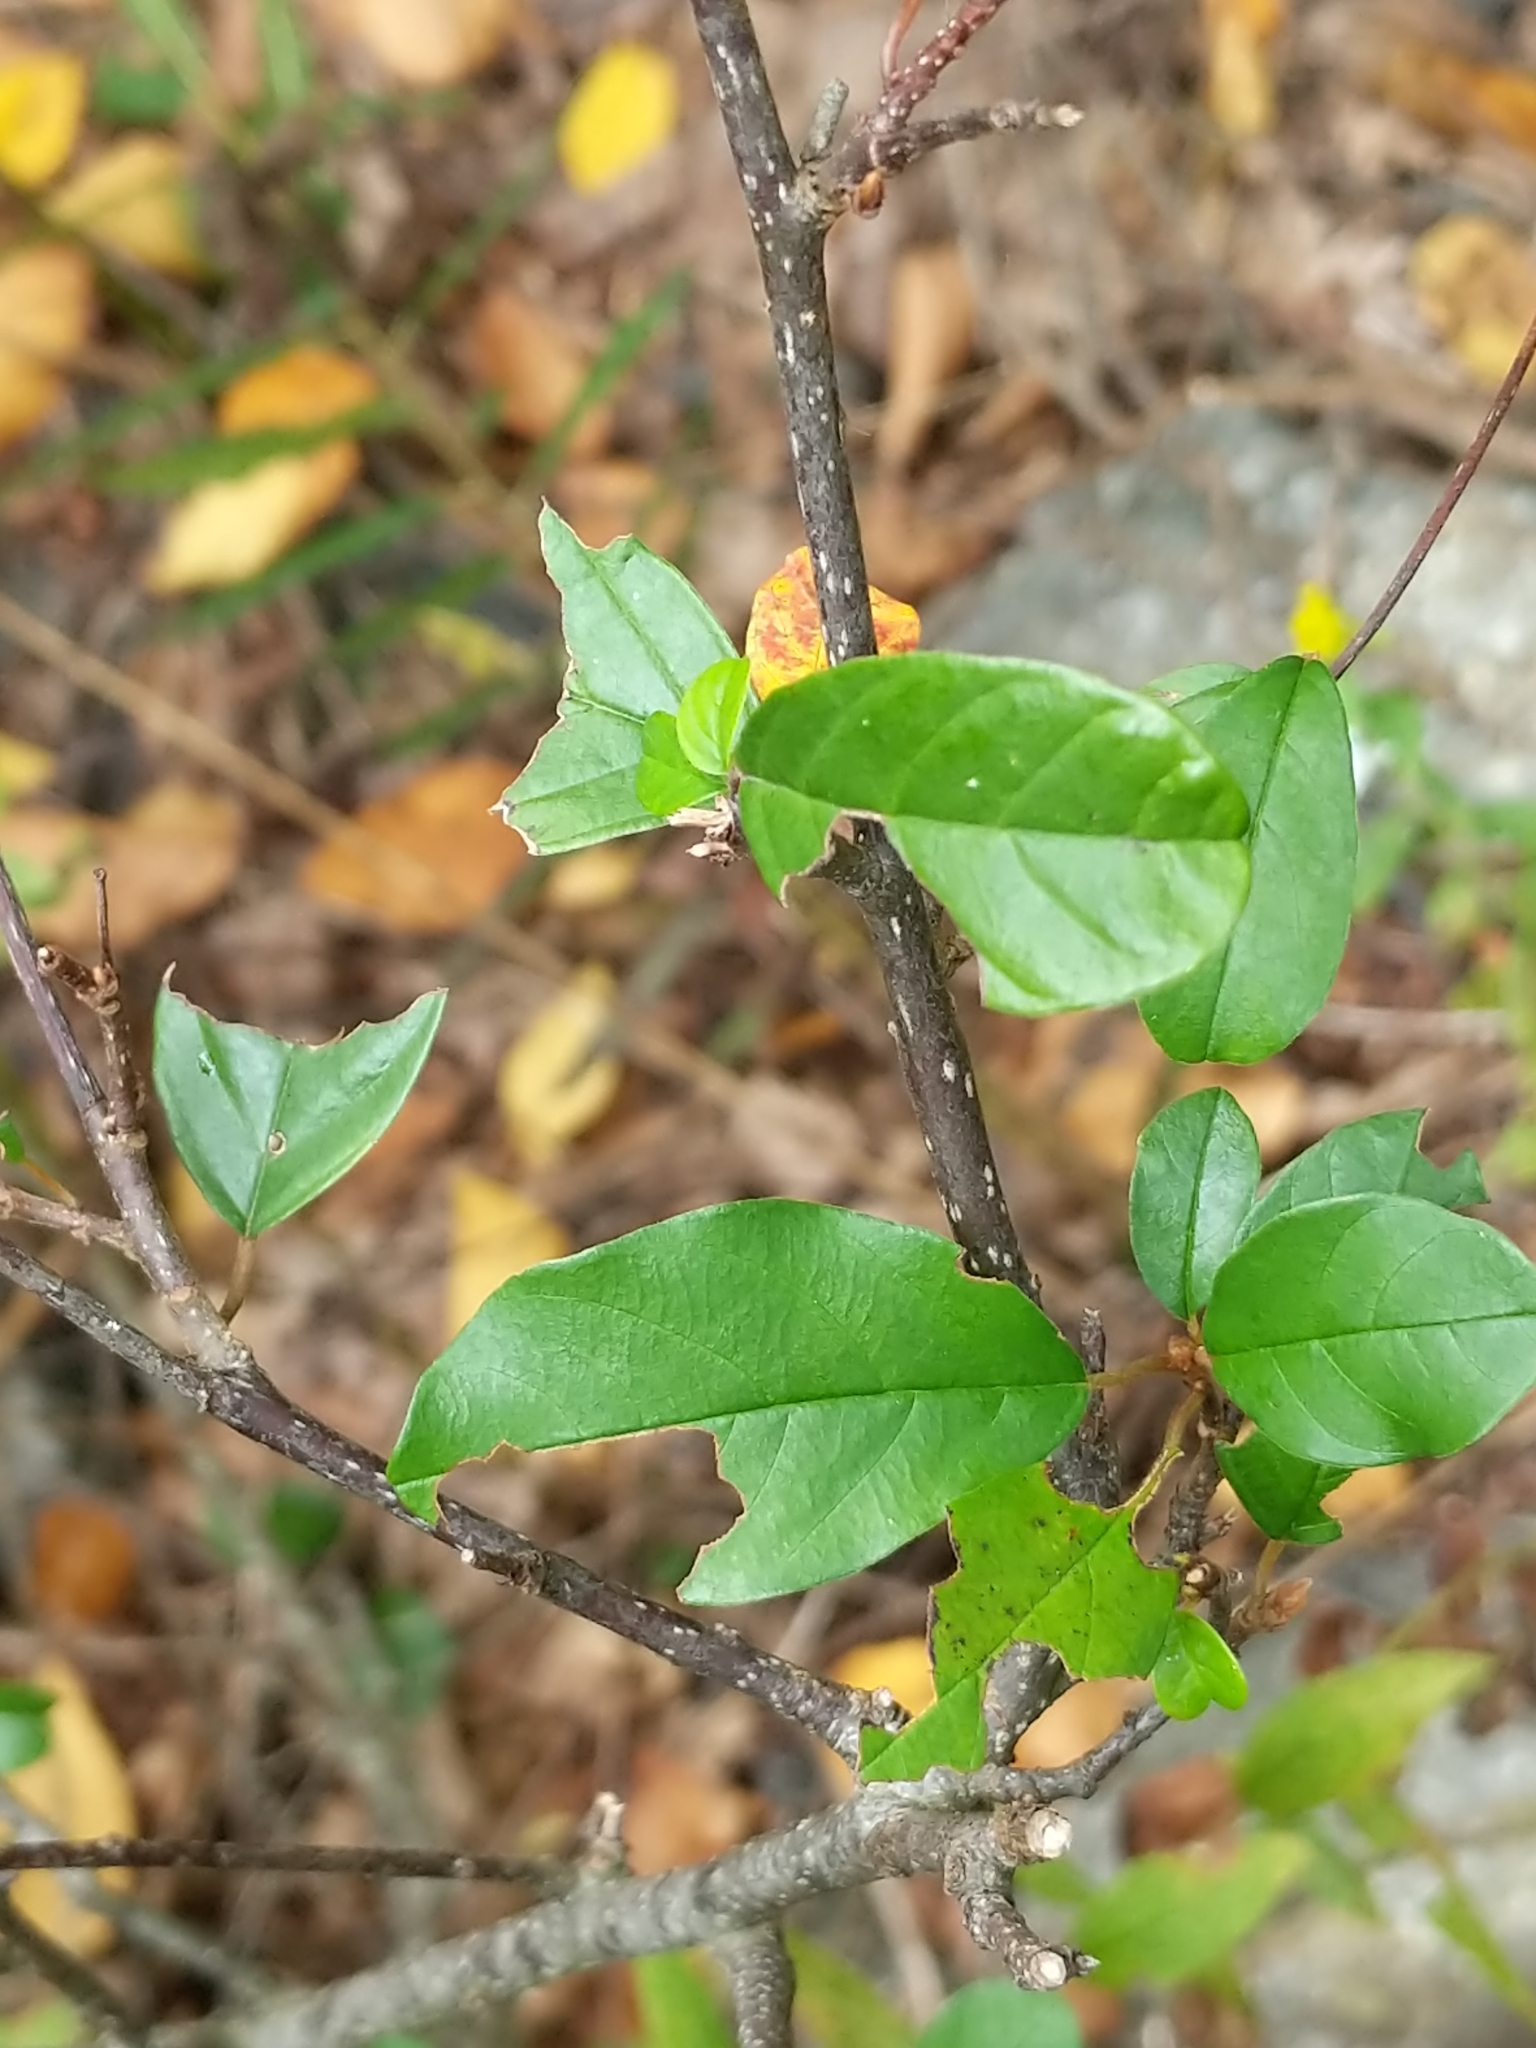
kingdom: Plantae
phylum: Tracheophyta
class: Magnoliopsida
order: Rosales
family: Rhamnaceae
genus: Frangula
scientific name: Frangula alnus
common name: Alder buckthorn
